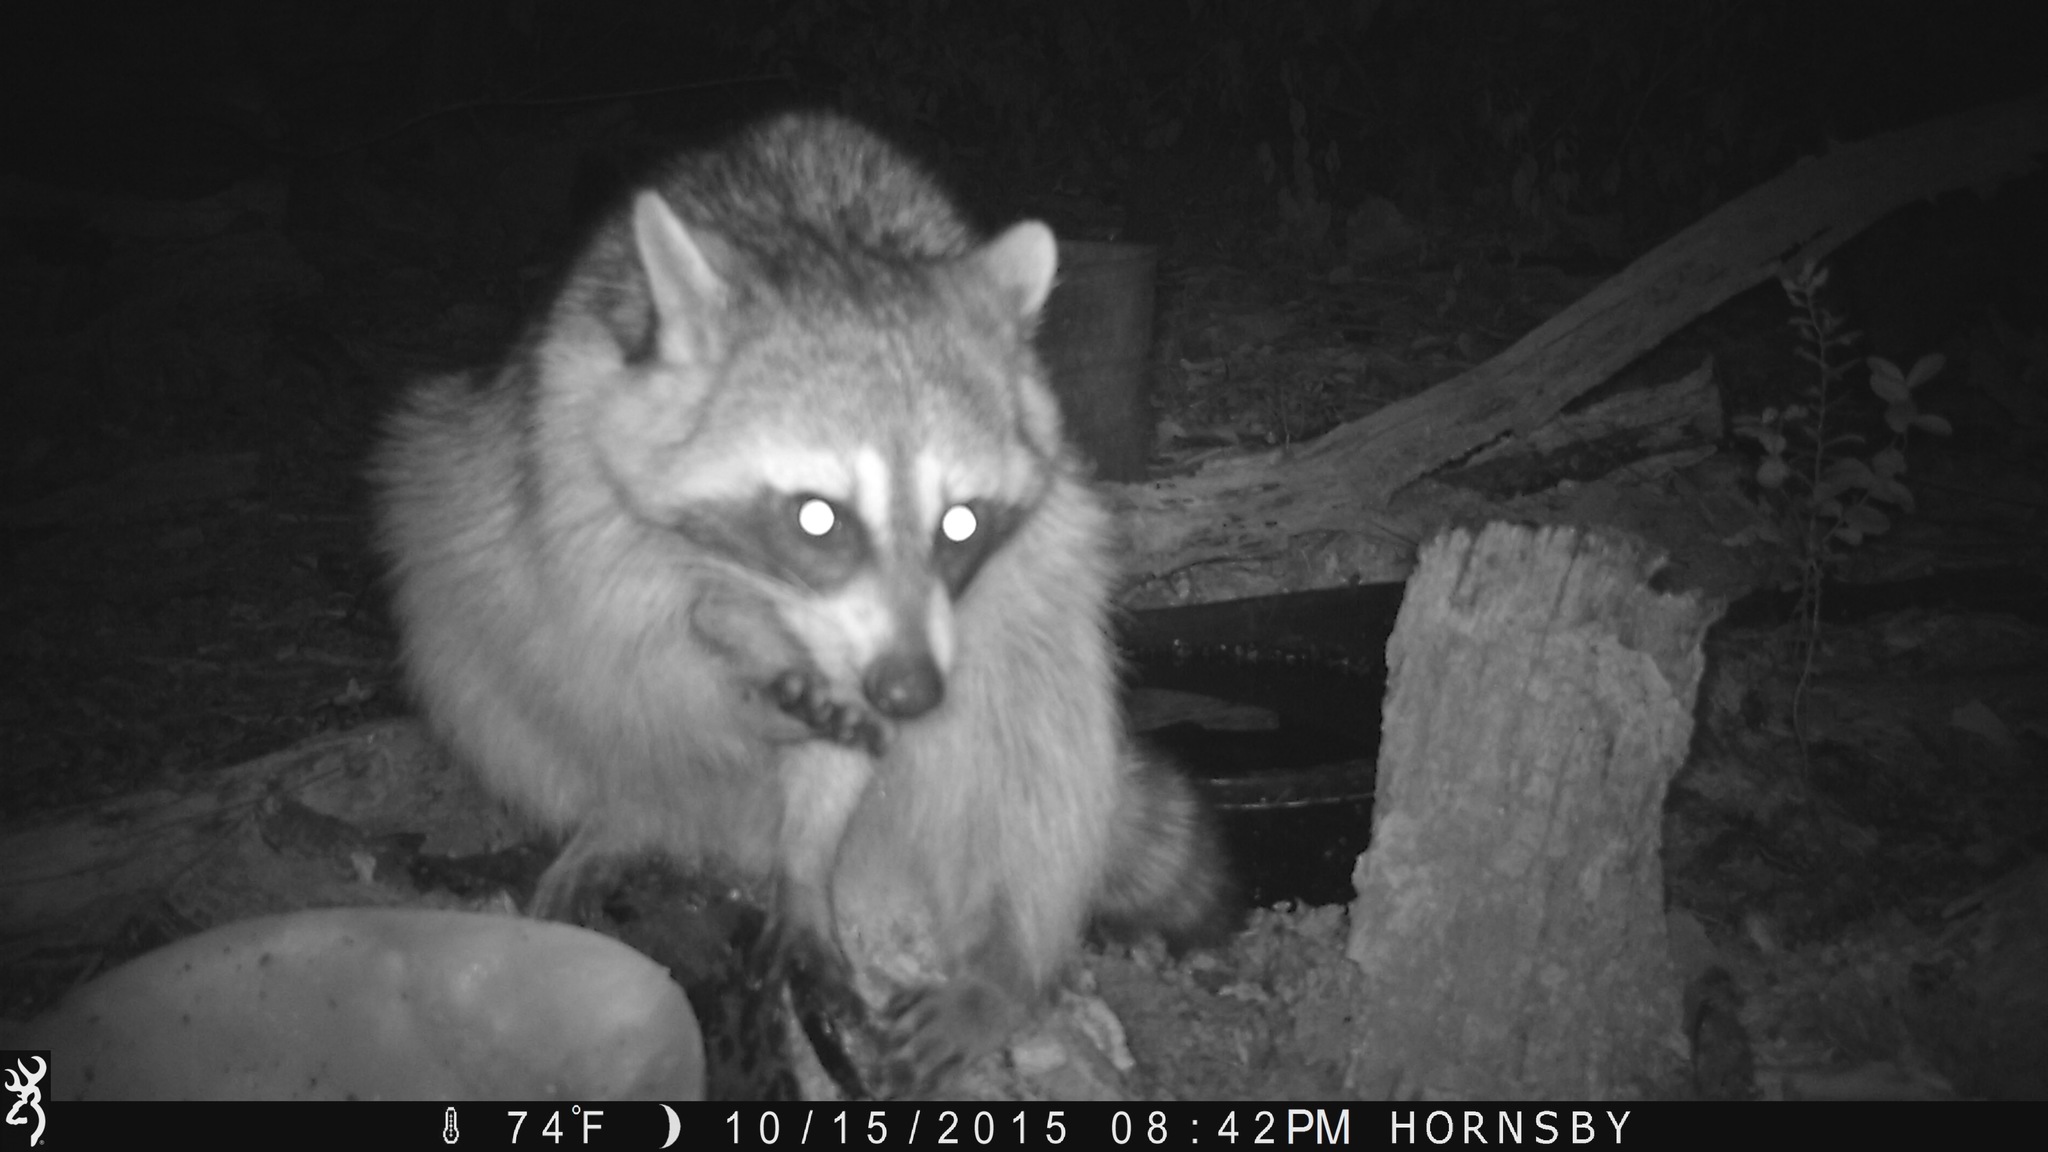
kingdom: Animalia
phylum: Chordata
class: Mammalia
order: Carnivora
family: Procyonidae
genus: Procyon
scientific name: Procyon lotor
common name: Raccoon
